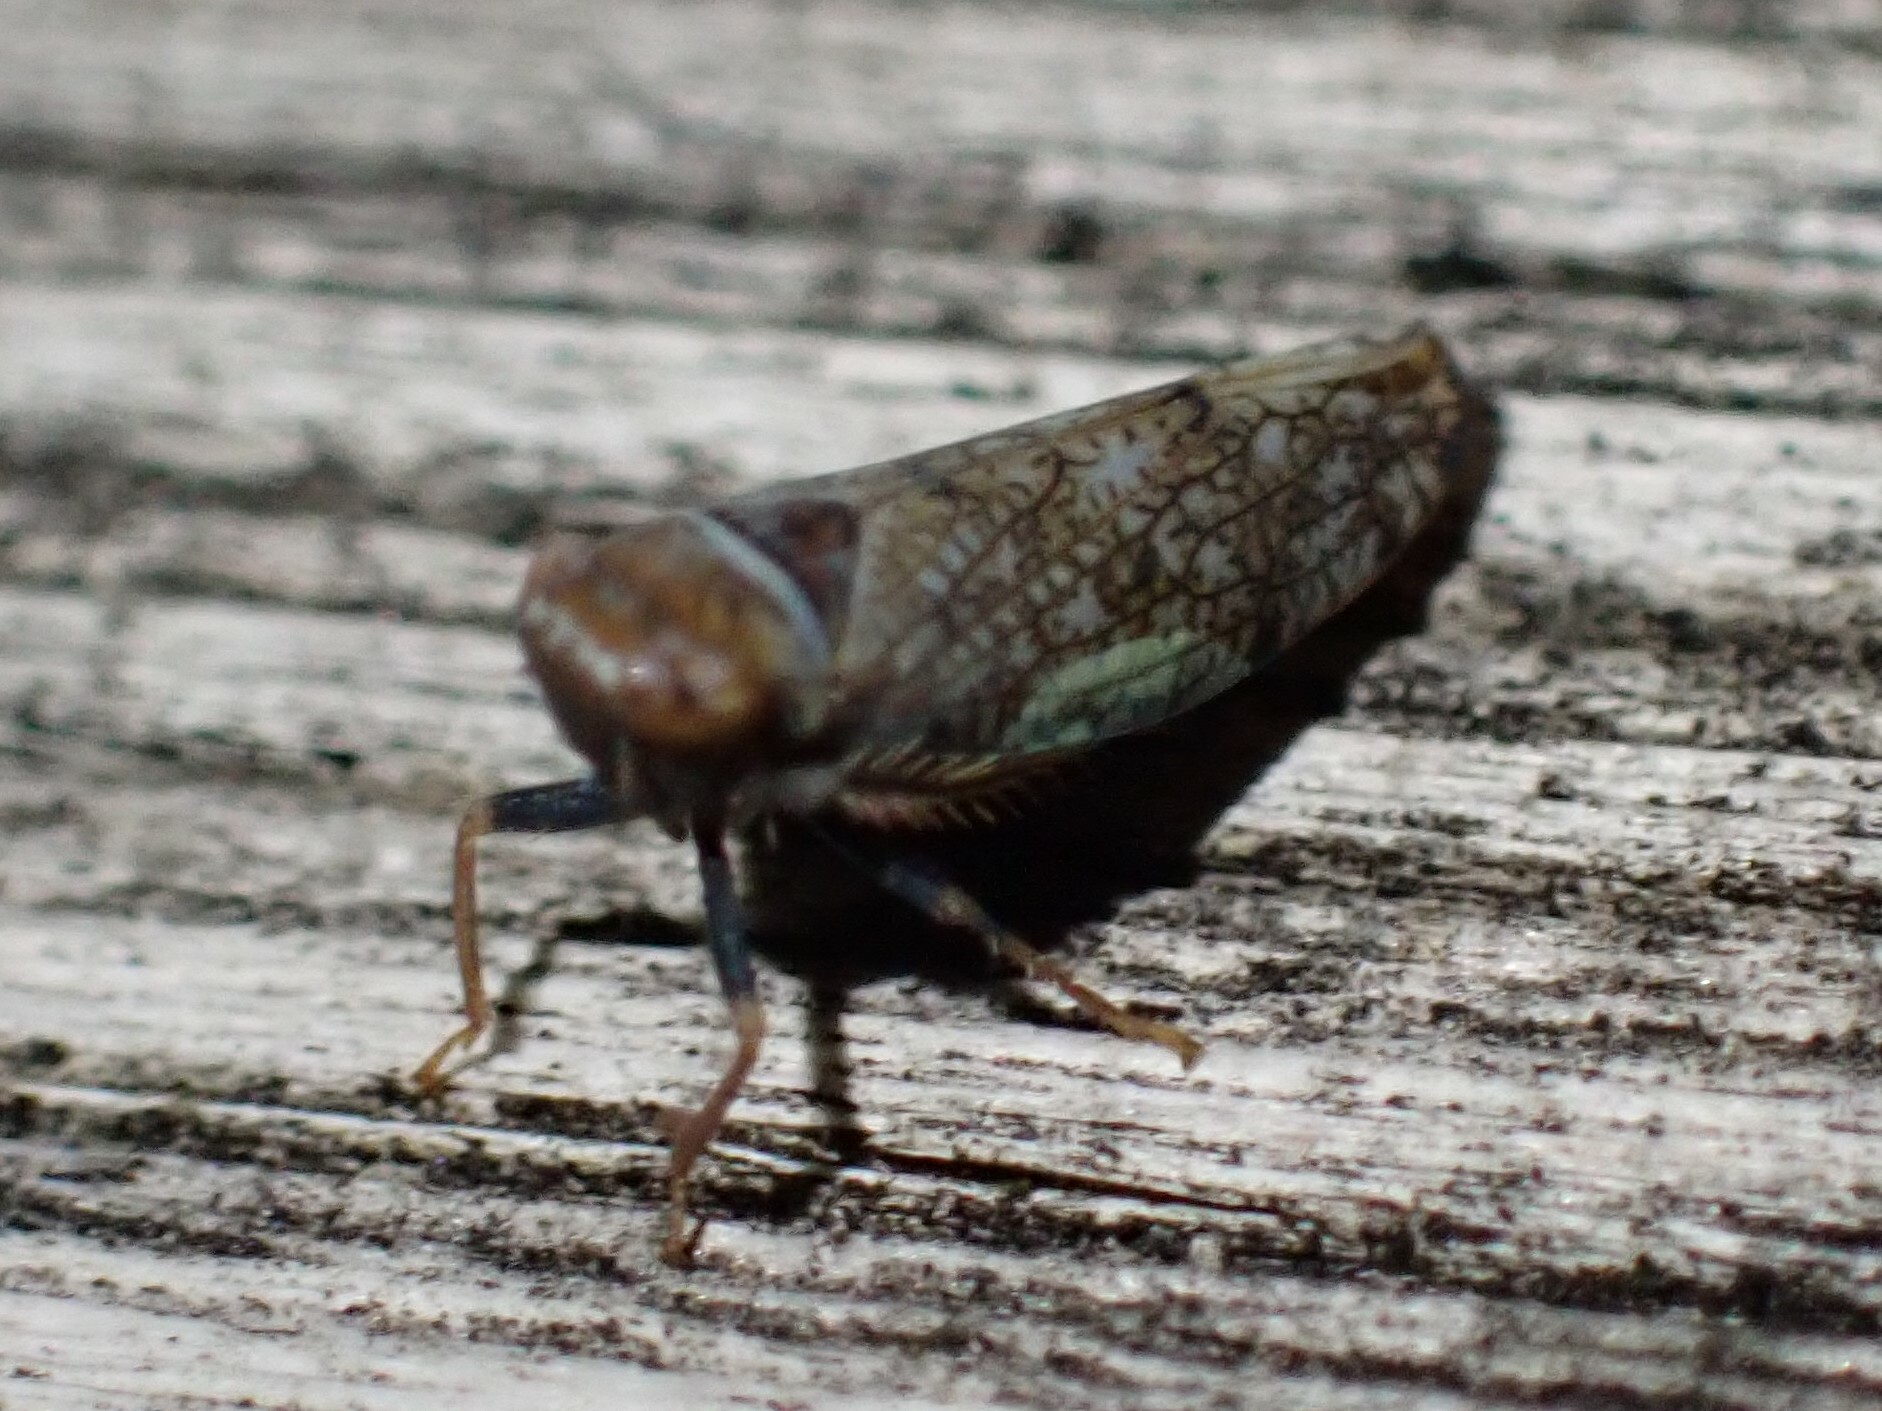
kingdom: Animalia
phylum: Arthropoda
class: Insecta
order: Hemiptera
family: Cicadellidae
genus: Orientus
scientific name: Orientus ishidae
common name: Japanese leafhopper
